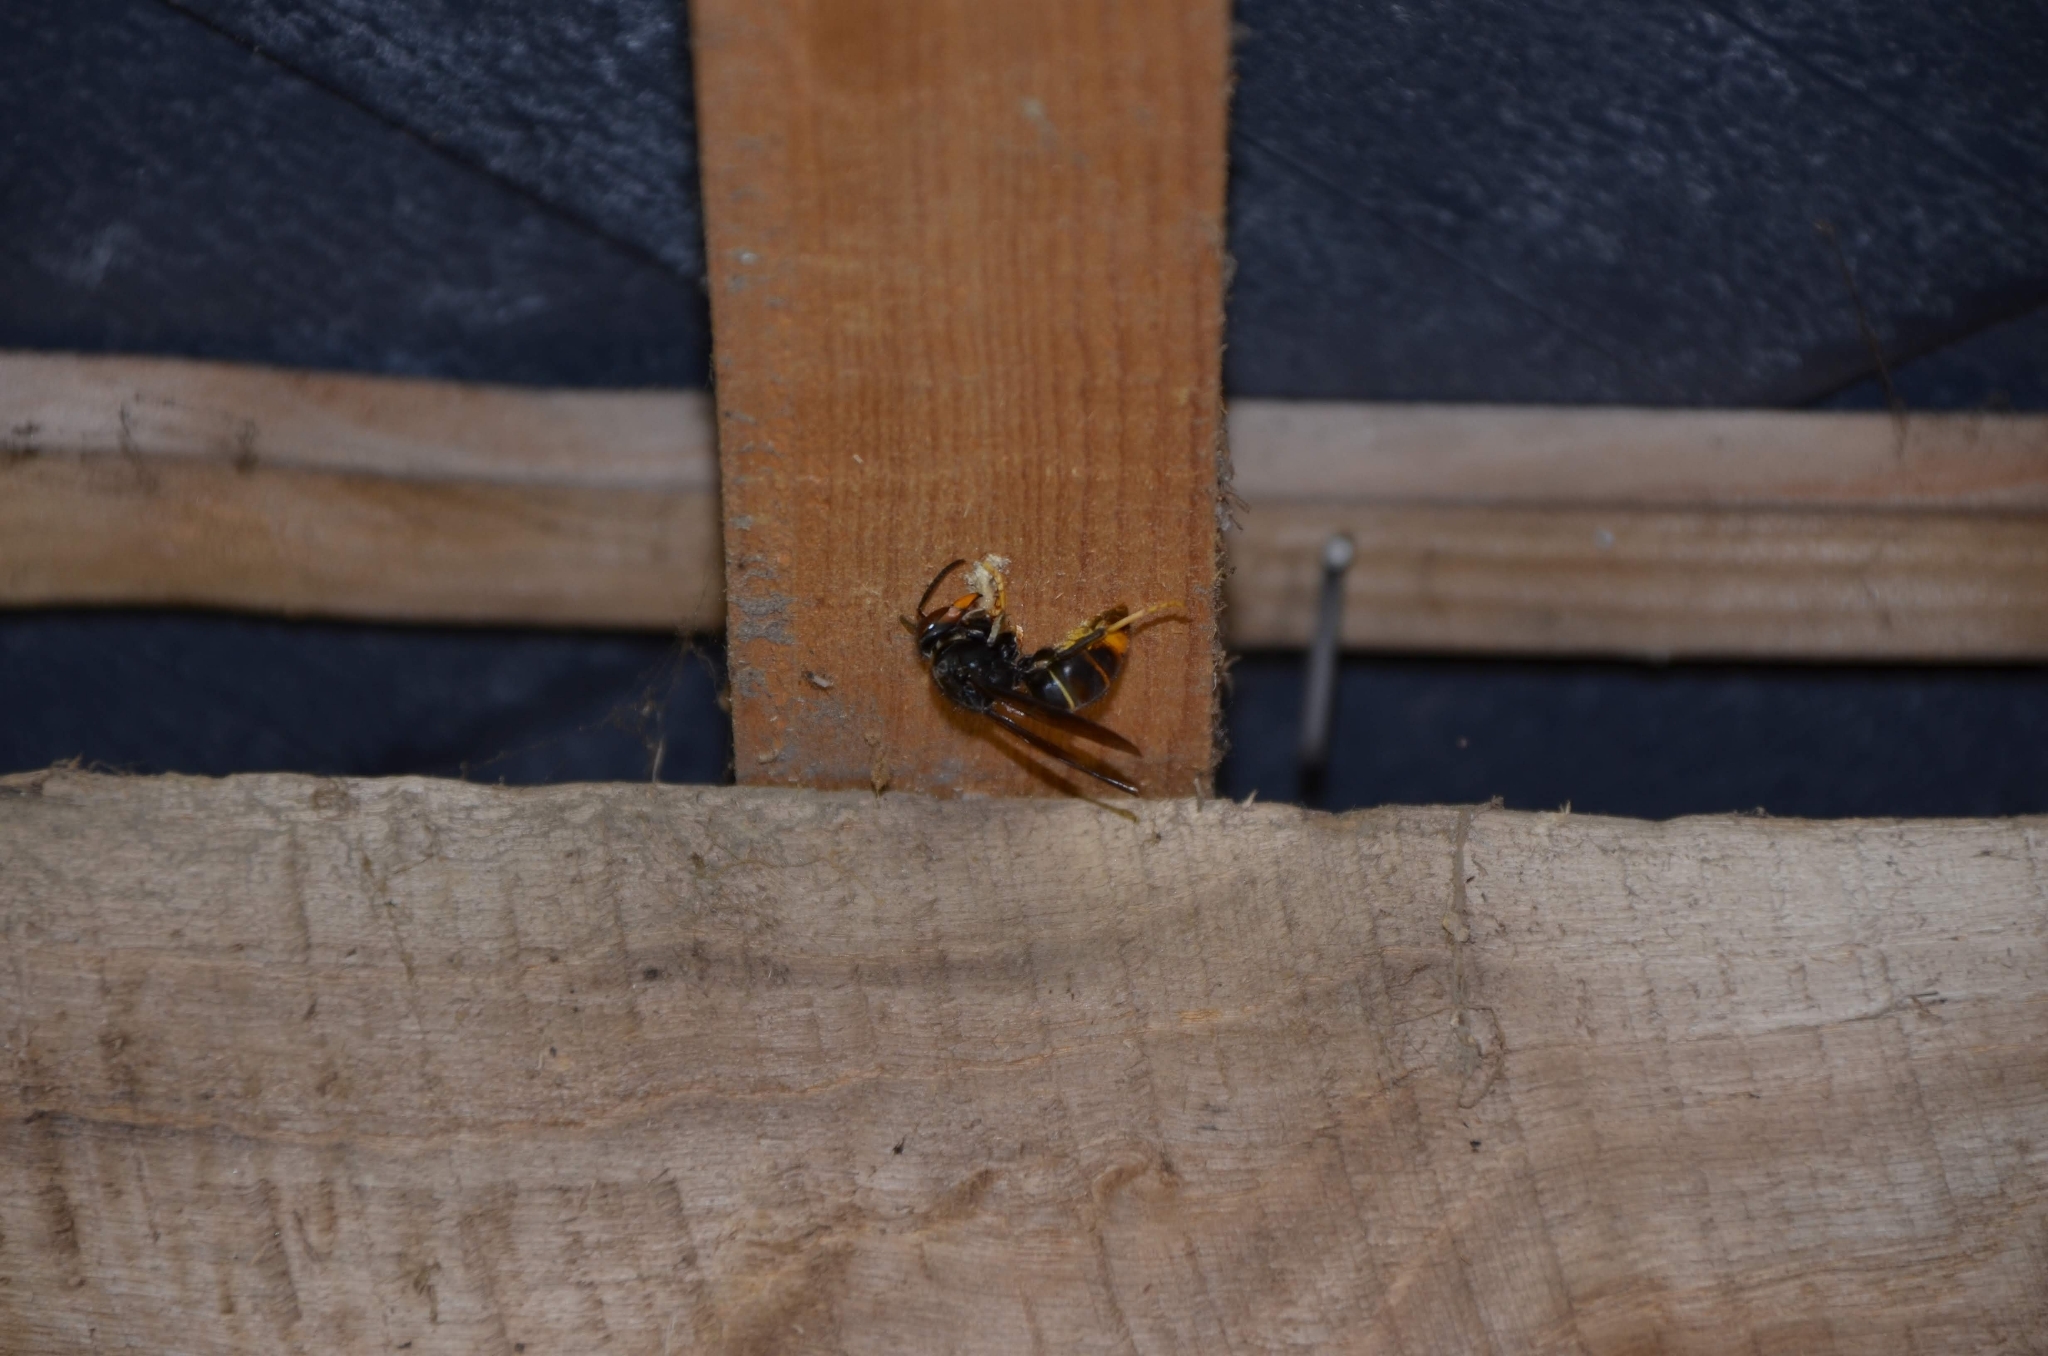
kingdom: Animalia
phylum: Arthropoda
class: Insecta
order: Hymenoptera
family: Vespidae
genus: Vespa
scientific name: Vespa velutina
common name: Asian hornet
